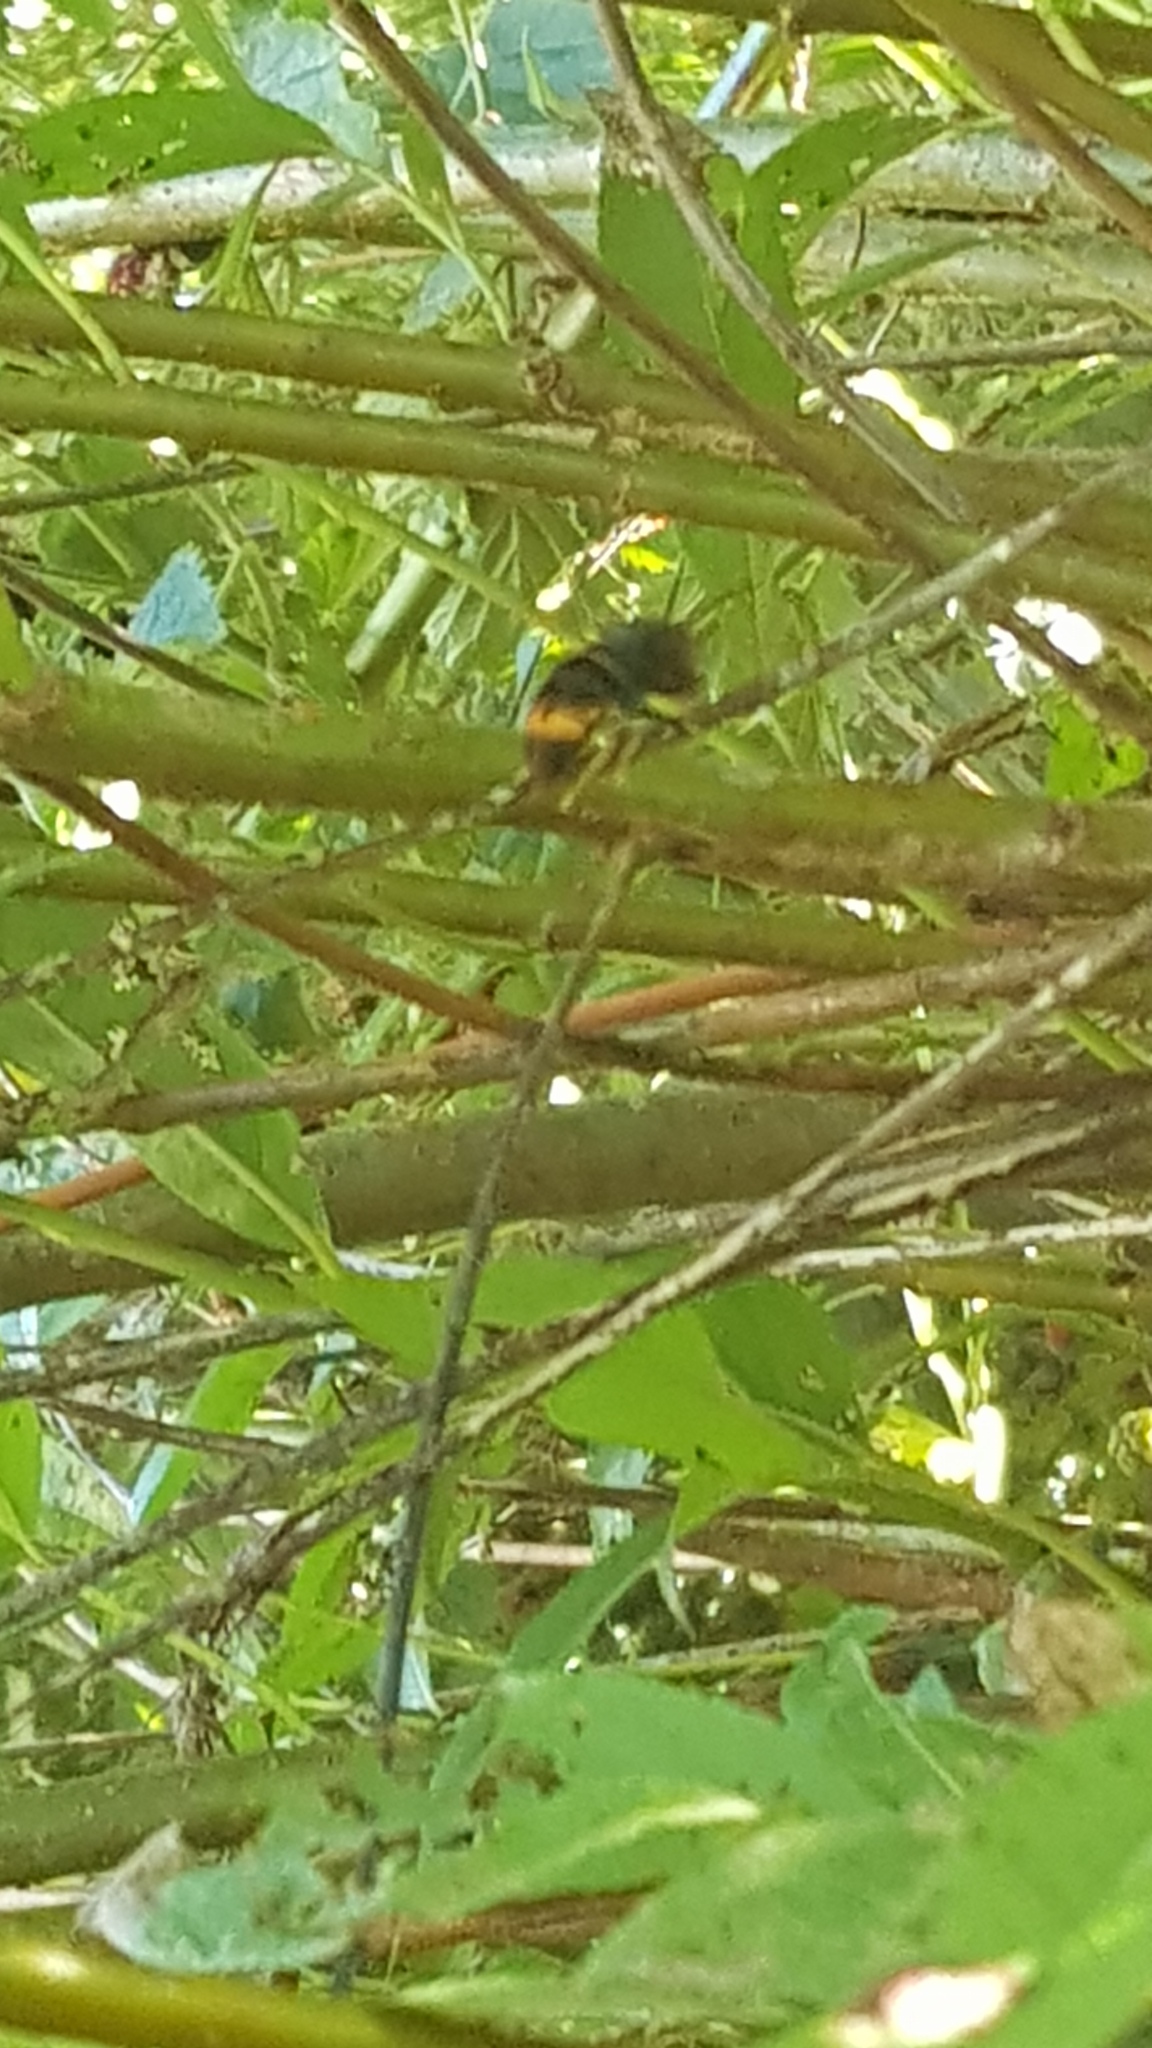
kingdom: Animalia
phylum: Arthropoda
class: Insecta
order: Hymenoptera
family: Vespidae
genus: Vespa
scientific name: Vespa velutina
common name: Asian hornet
